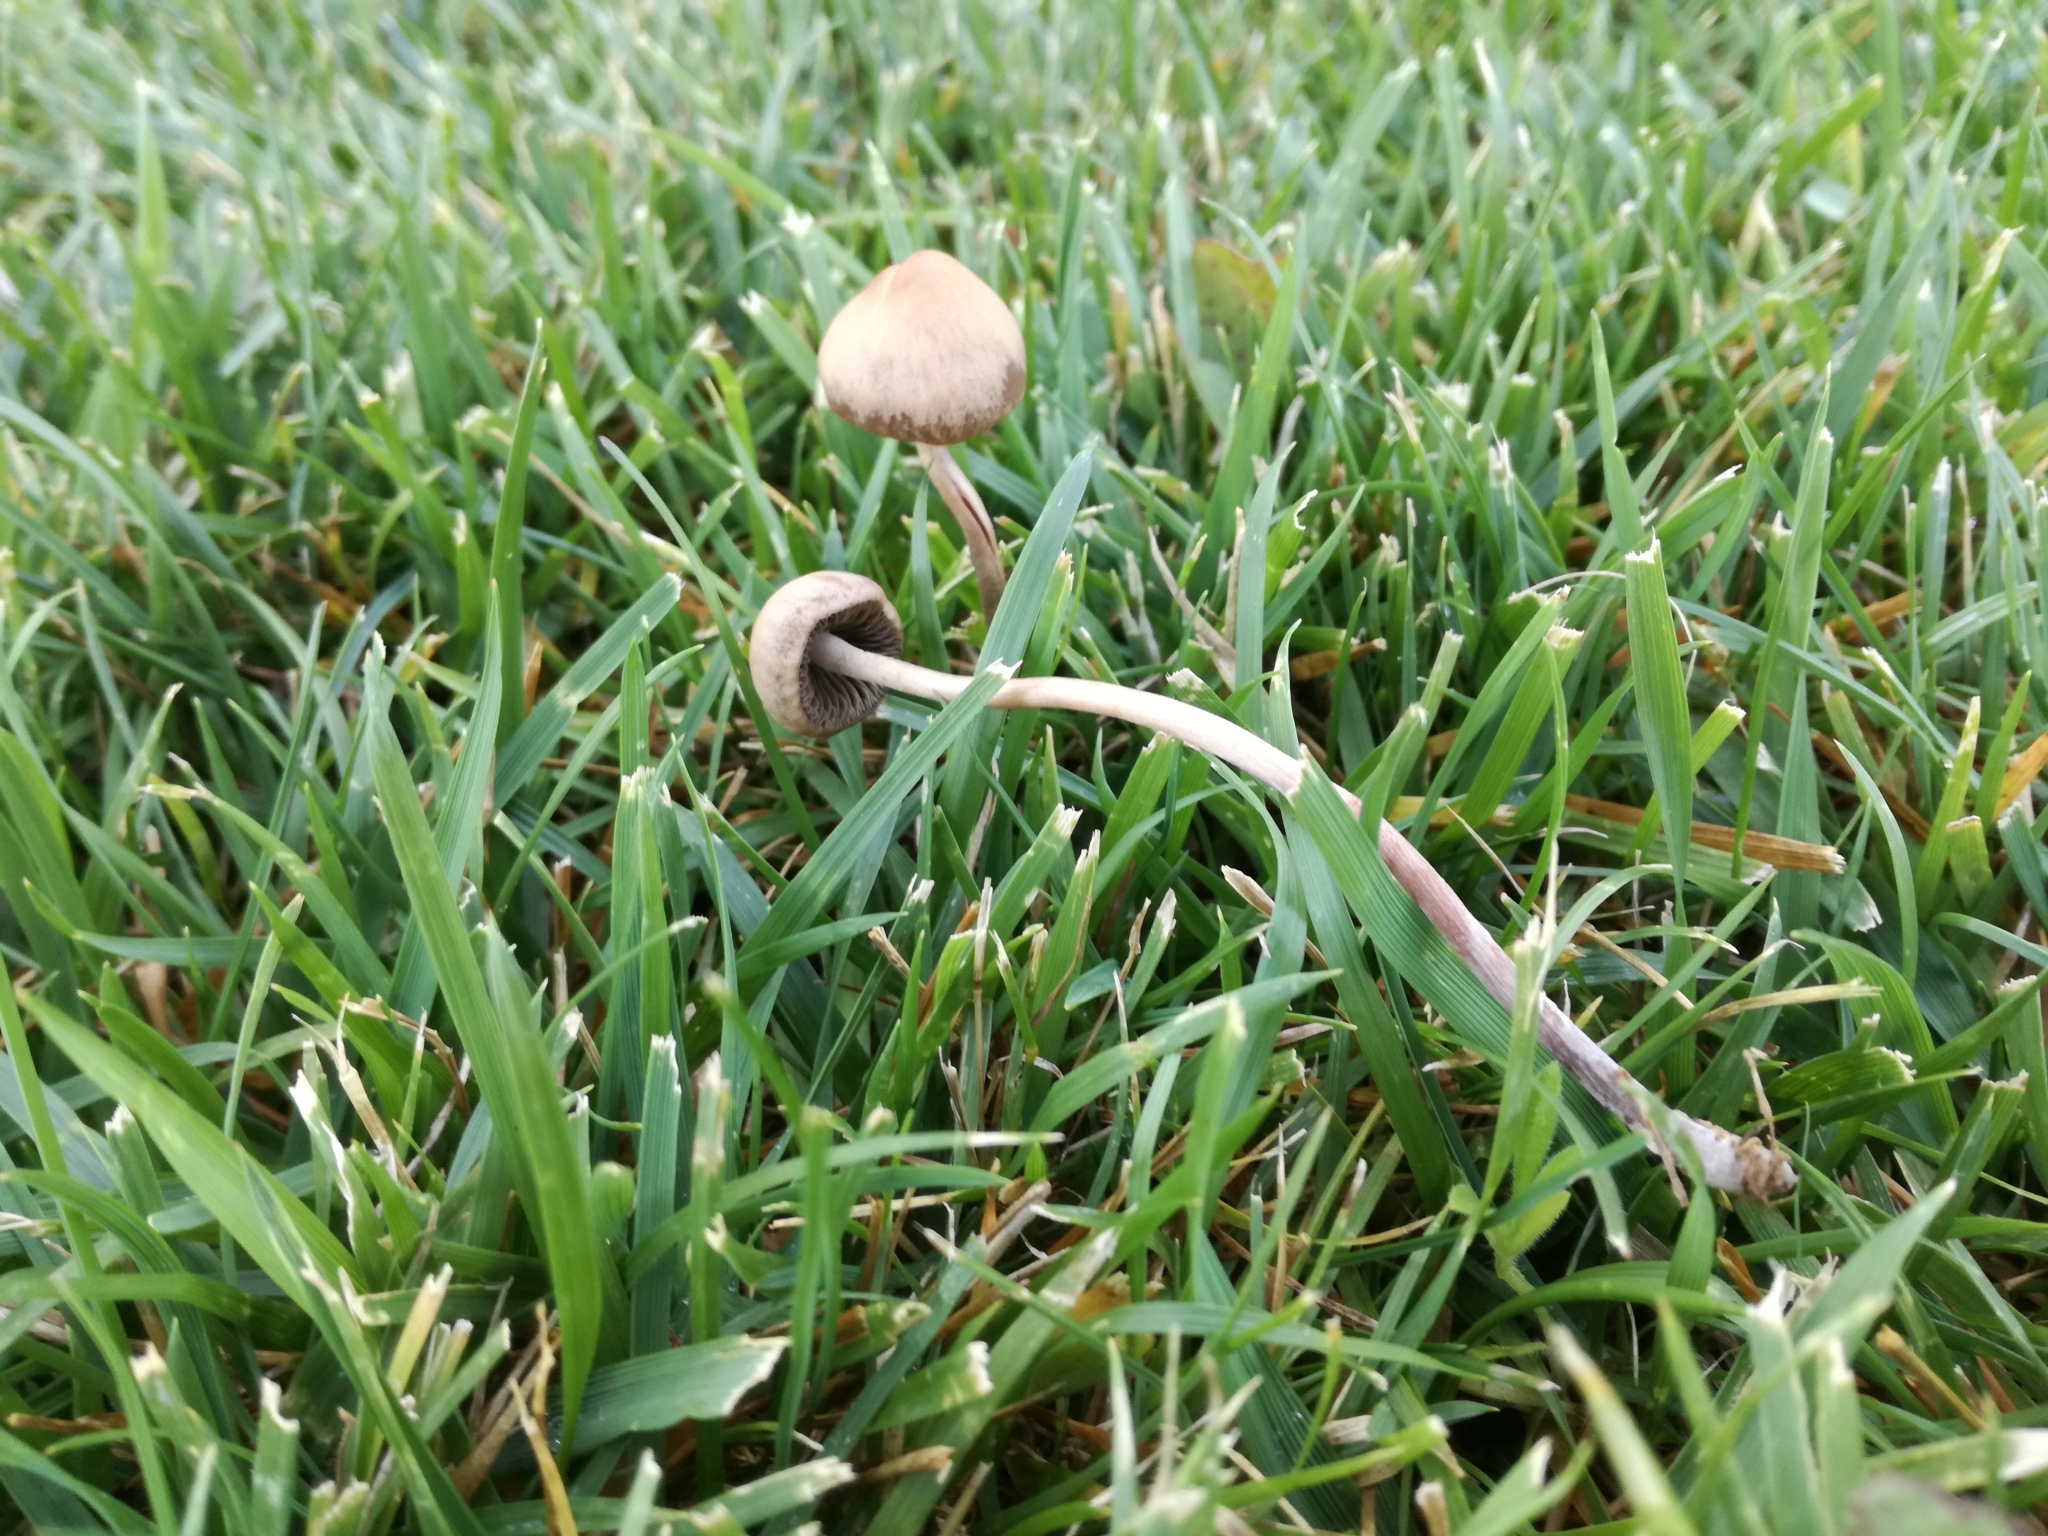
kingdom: Fungi
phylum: Basidiomycota
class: Agaricomycetes
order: Agaricales
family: Bolbitiaceae
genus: Panaeolina
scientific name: Panaeolina foenisecii
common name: Brown hay cap
